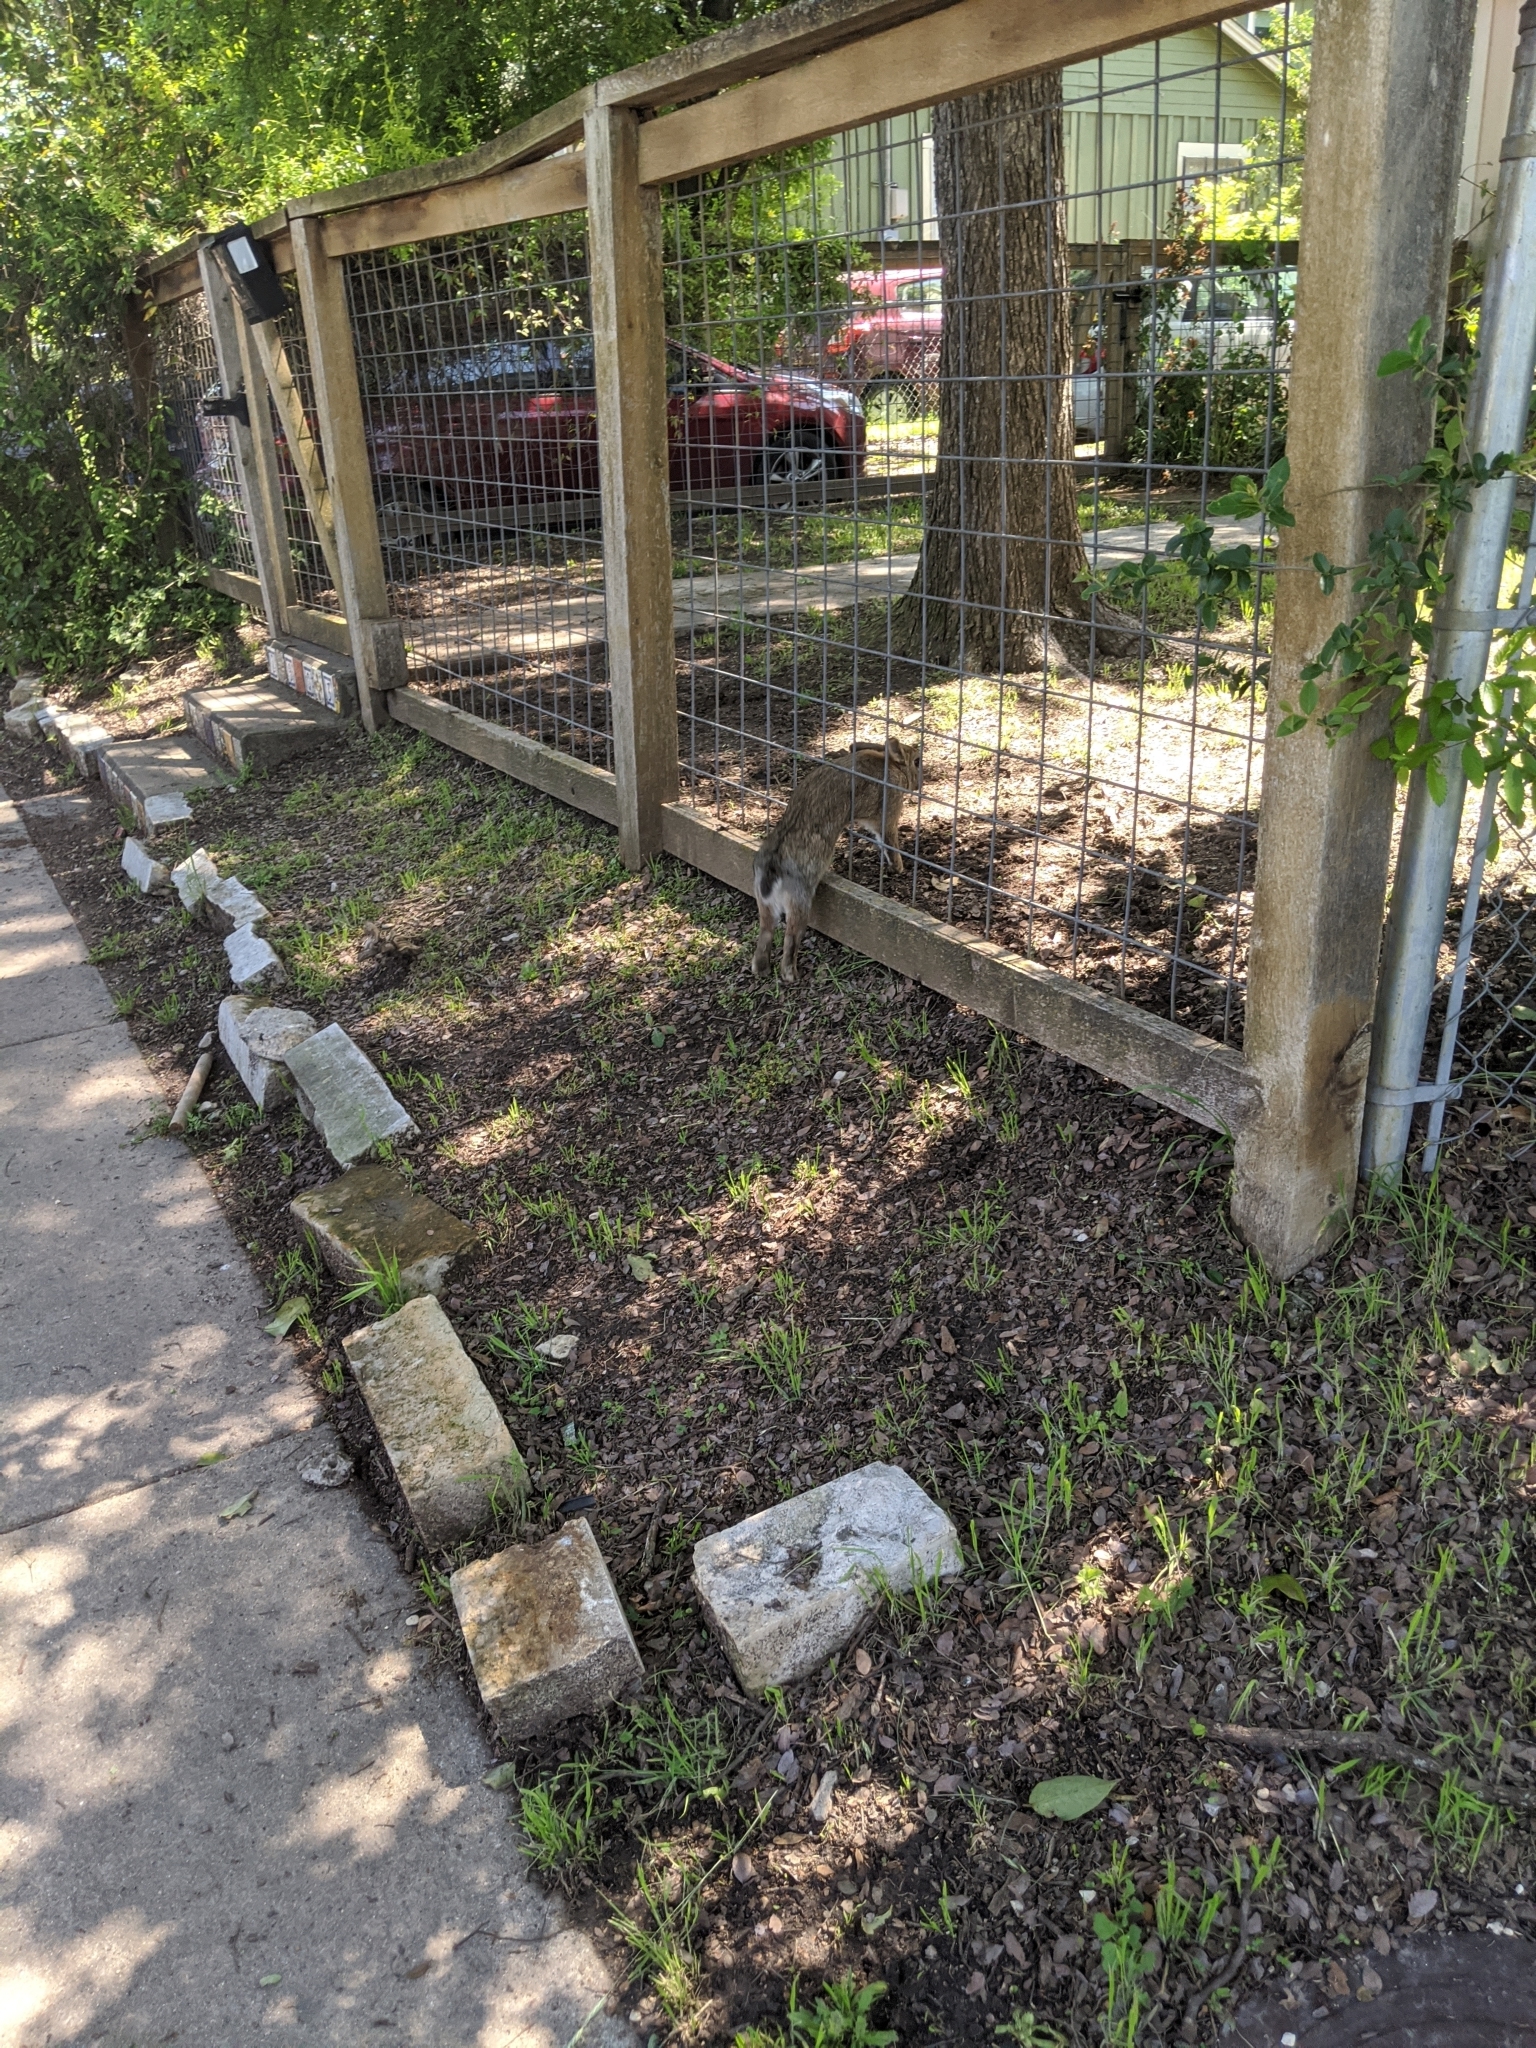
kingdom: Animalia
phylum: Chordata
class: Mammalia
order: Lagomorpha
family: Leporidae
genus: Sylvilagus
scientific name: Sylvilagus floridanus
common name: Eastern cottontail
